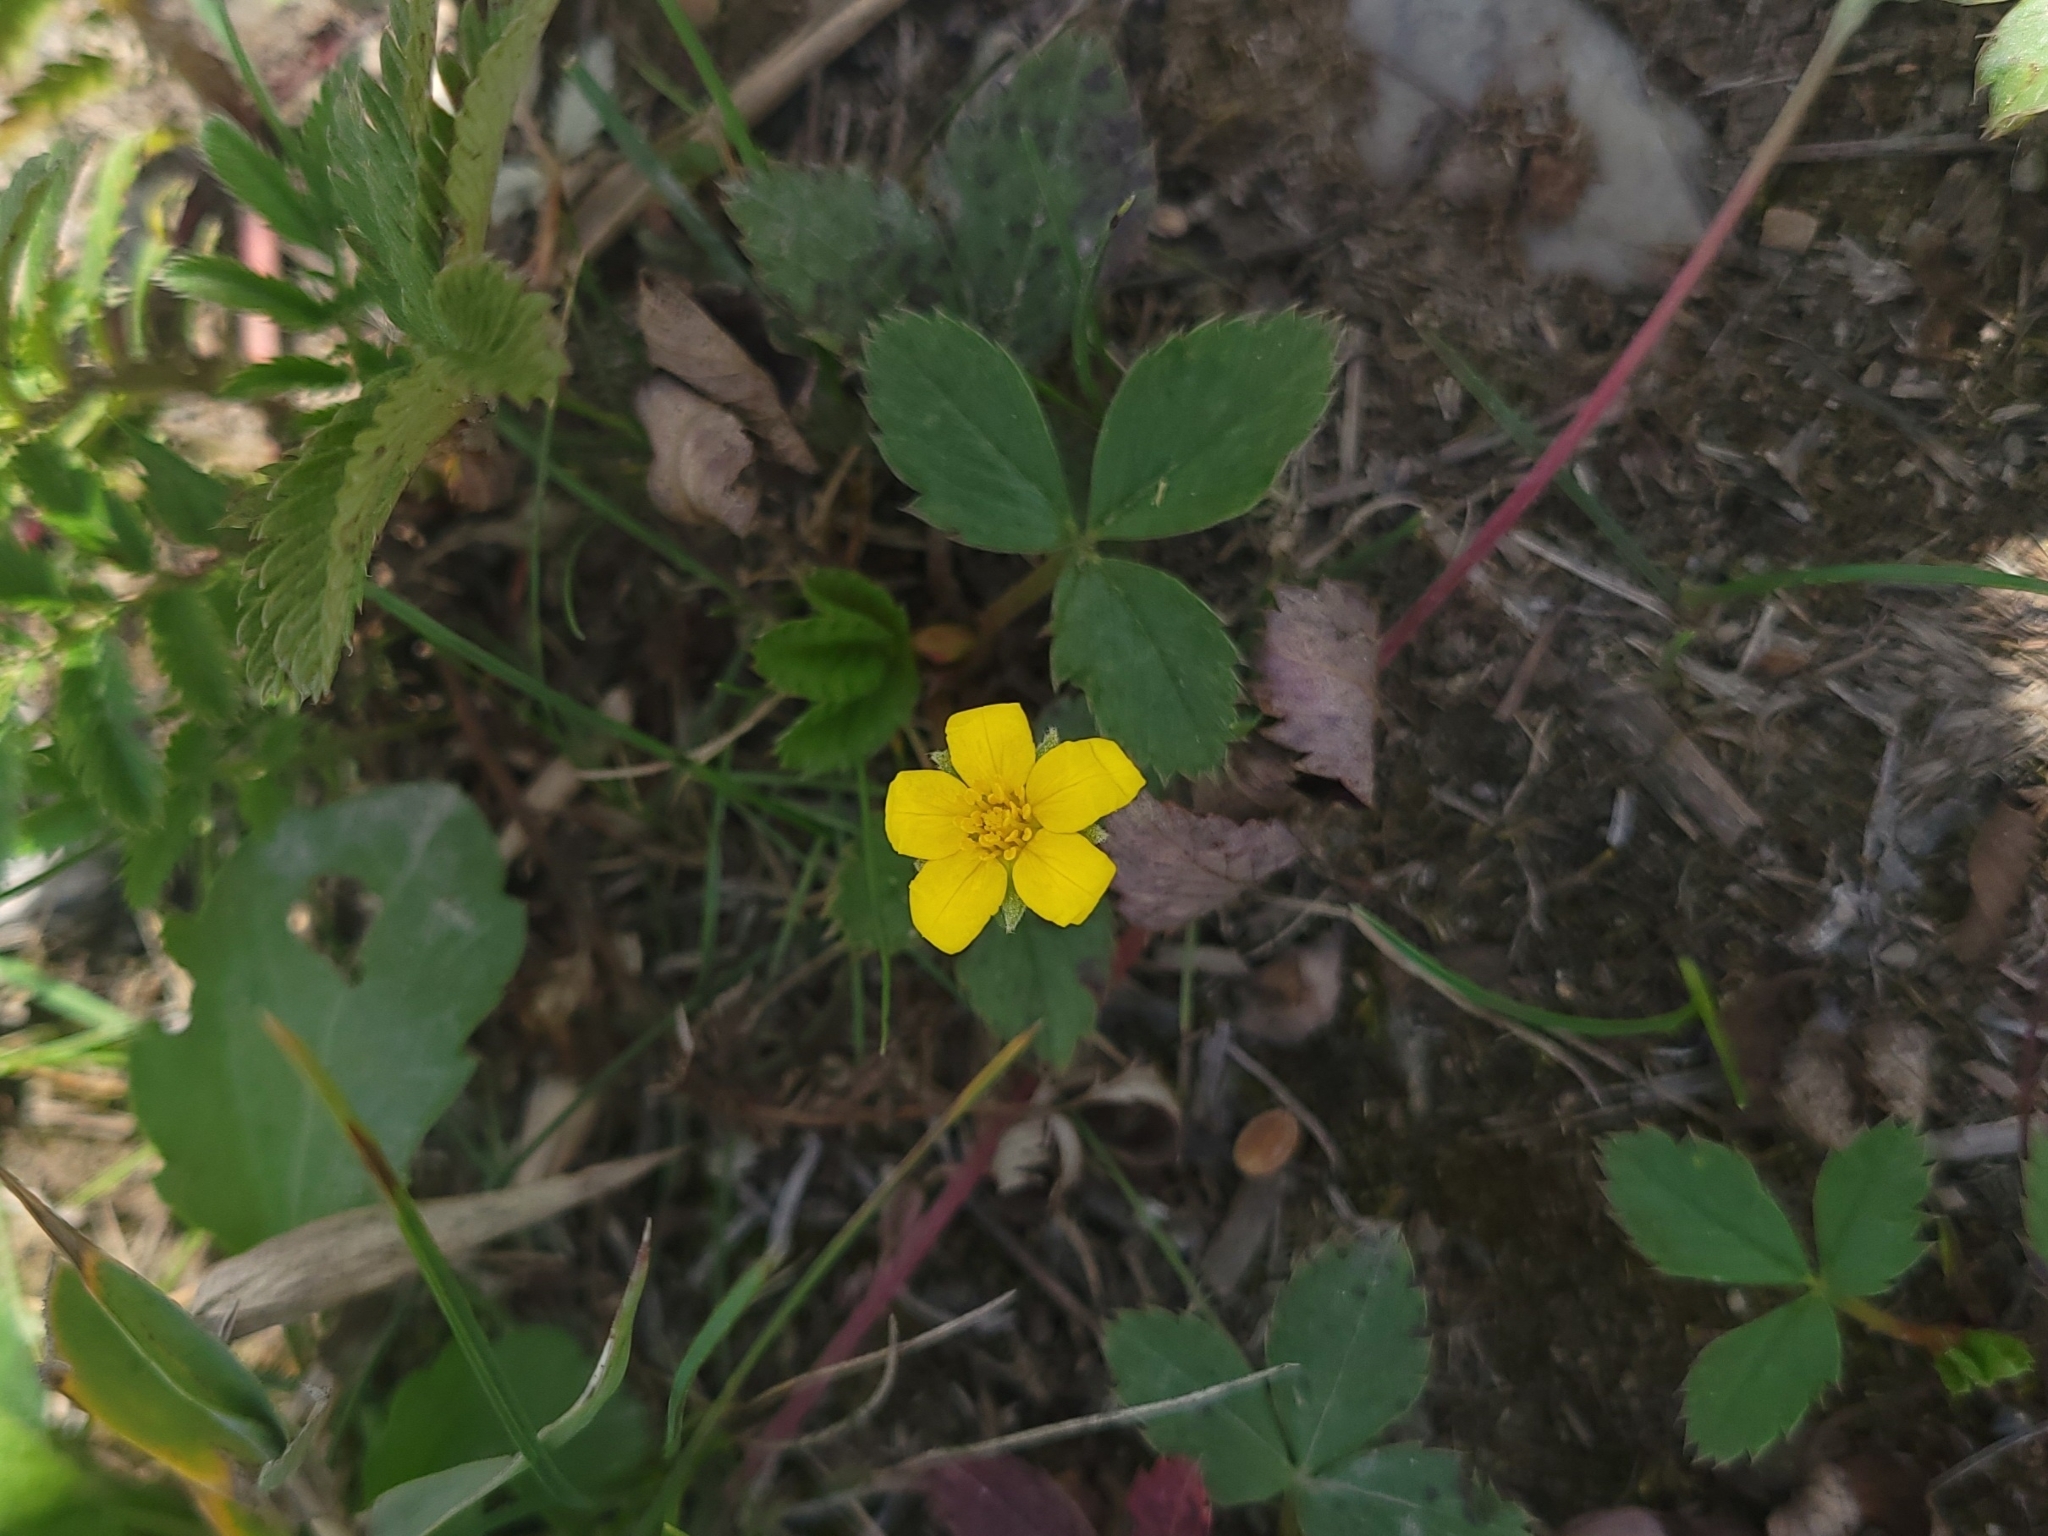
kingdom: Plantae
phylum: Tracheophyta
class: Magnoliopsida
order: Rosales
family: Rosaceae
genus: Argentina
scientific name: Argentina anserina
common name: Common silverweed
